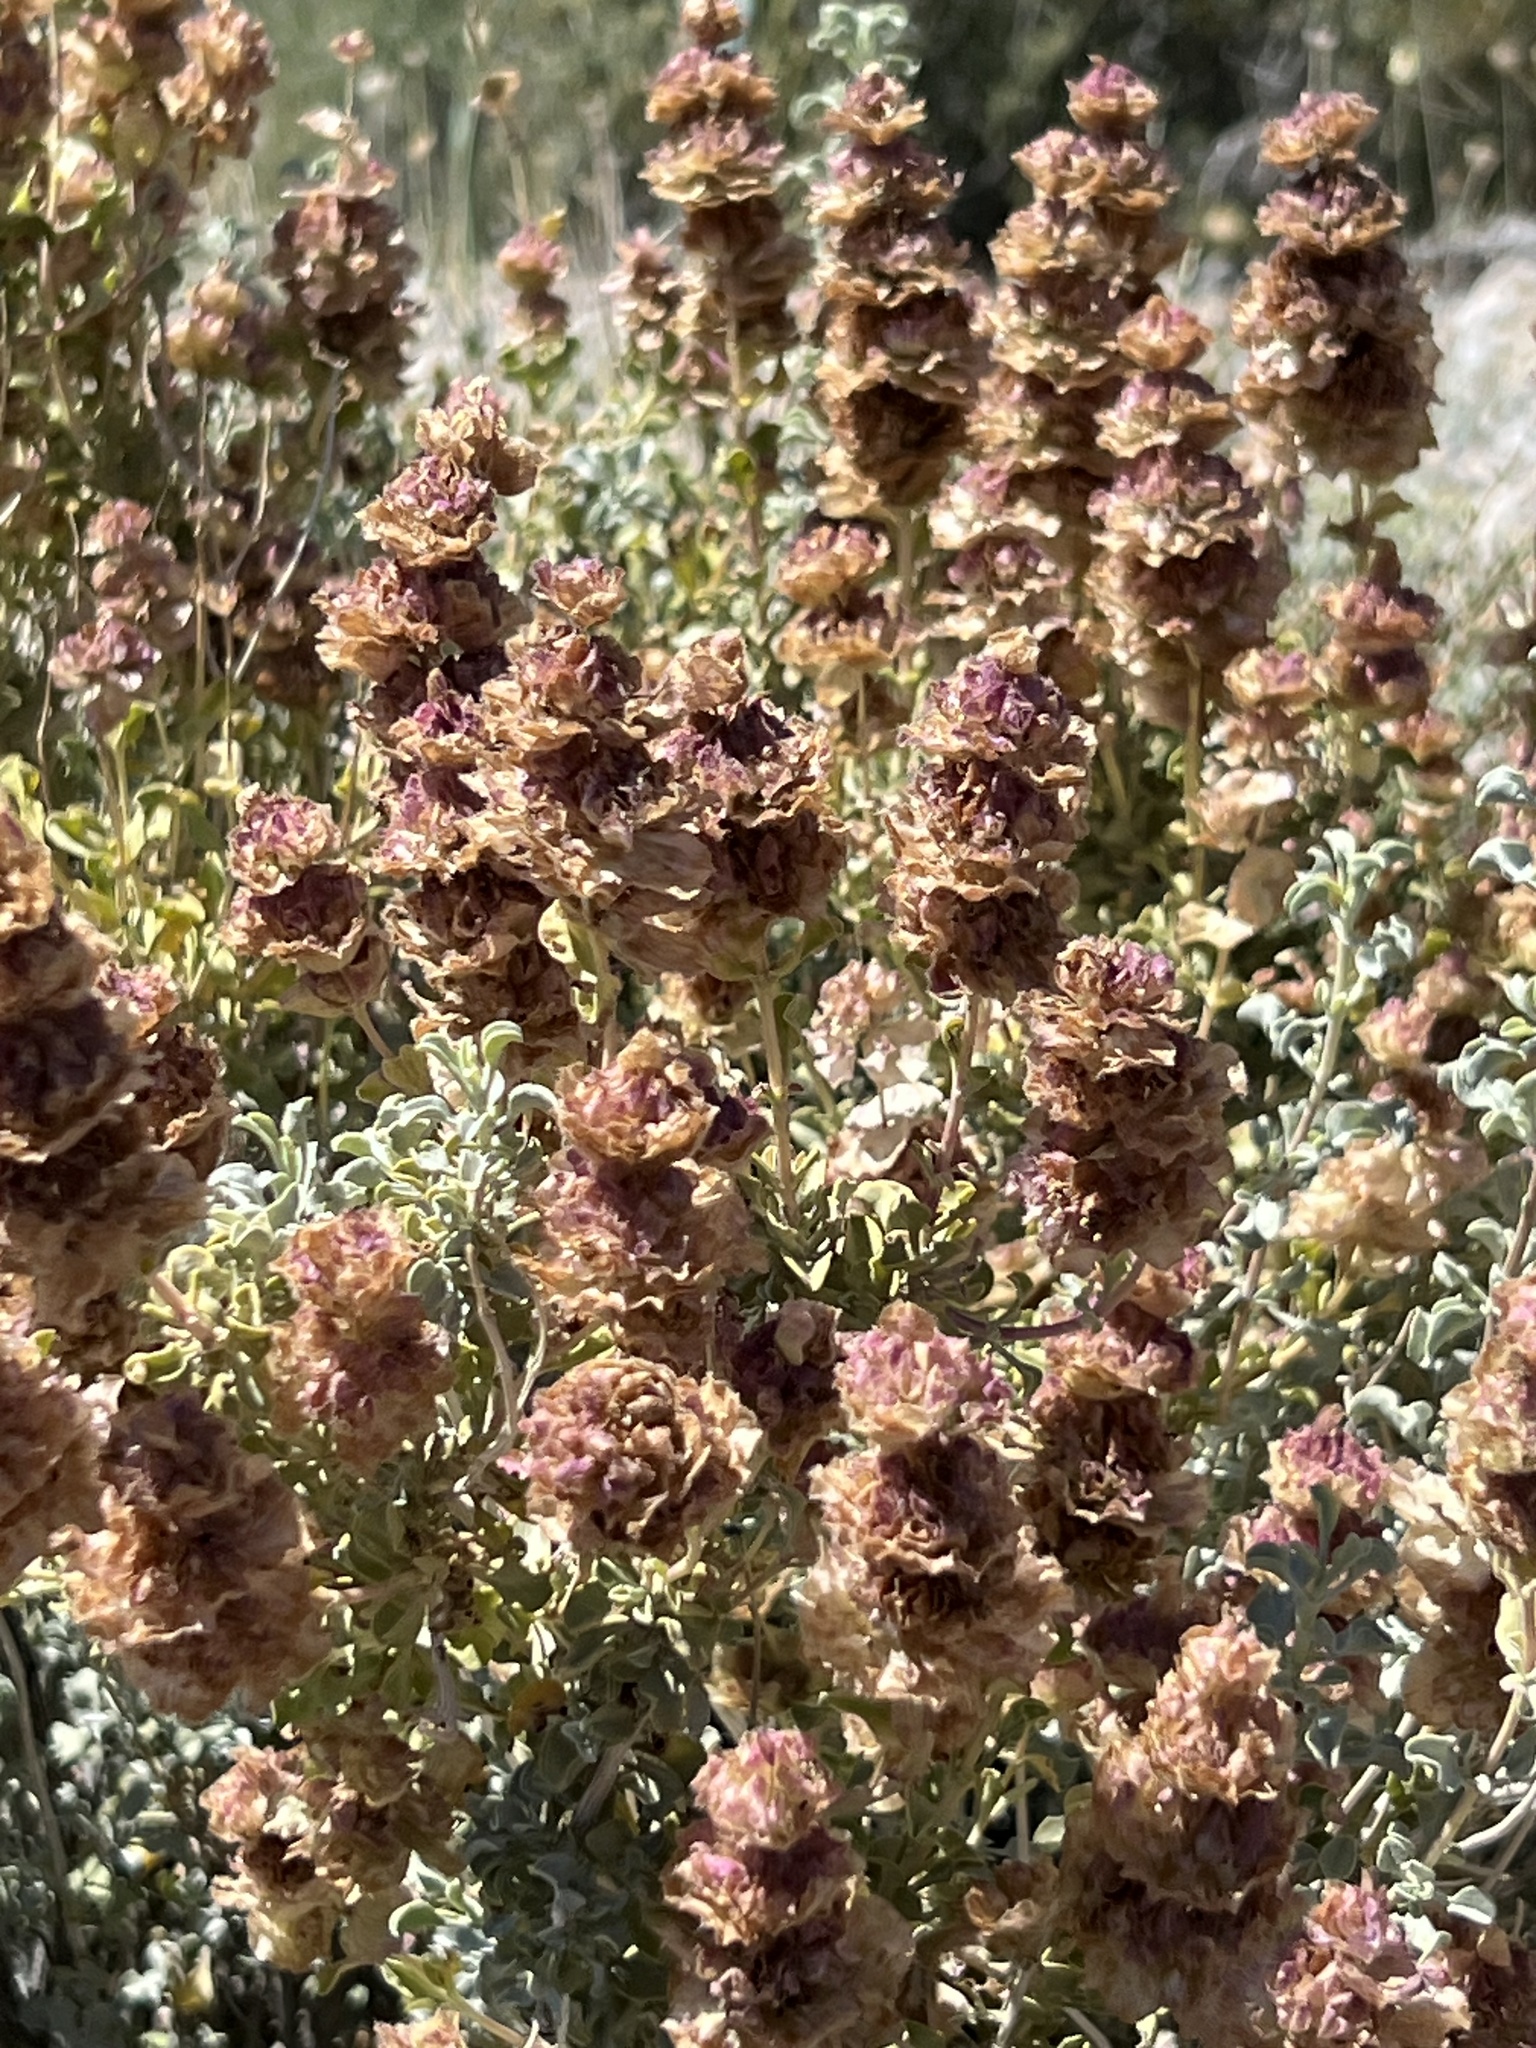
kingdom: Plantae
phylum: Tracheophyta
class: Magnoliopsida
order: Lamiales
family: Lamiaceae
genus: Salvia
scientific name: Salvia dorrii
